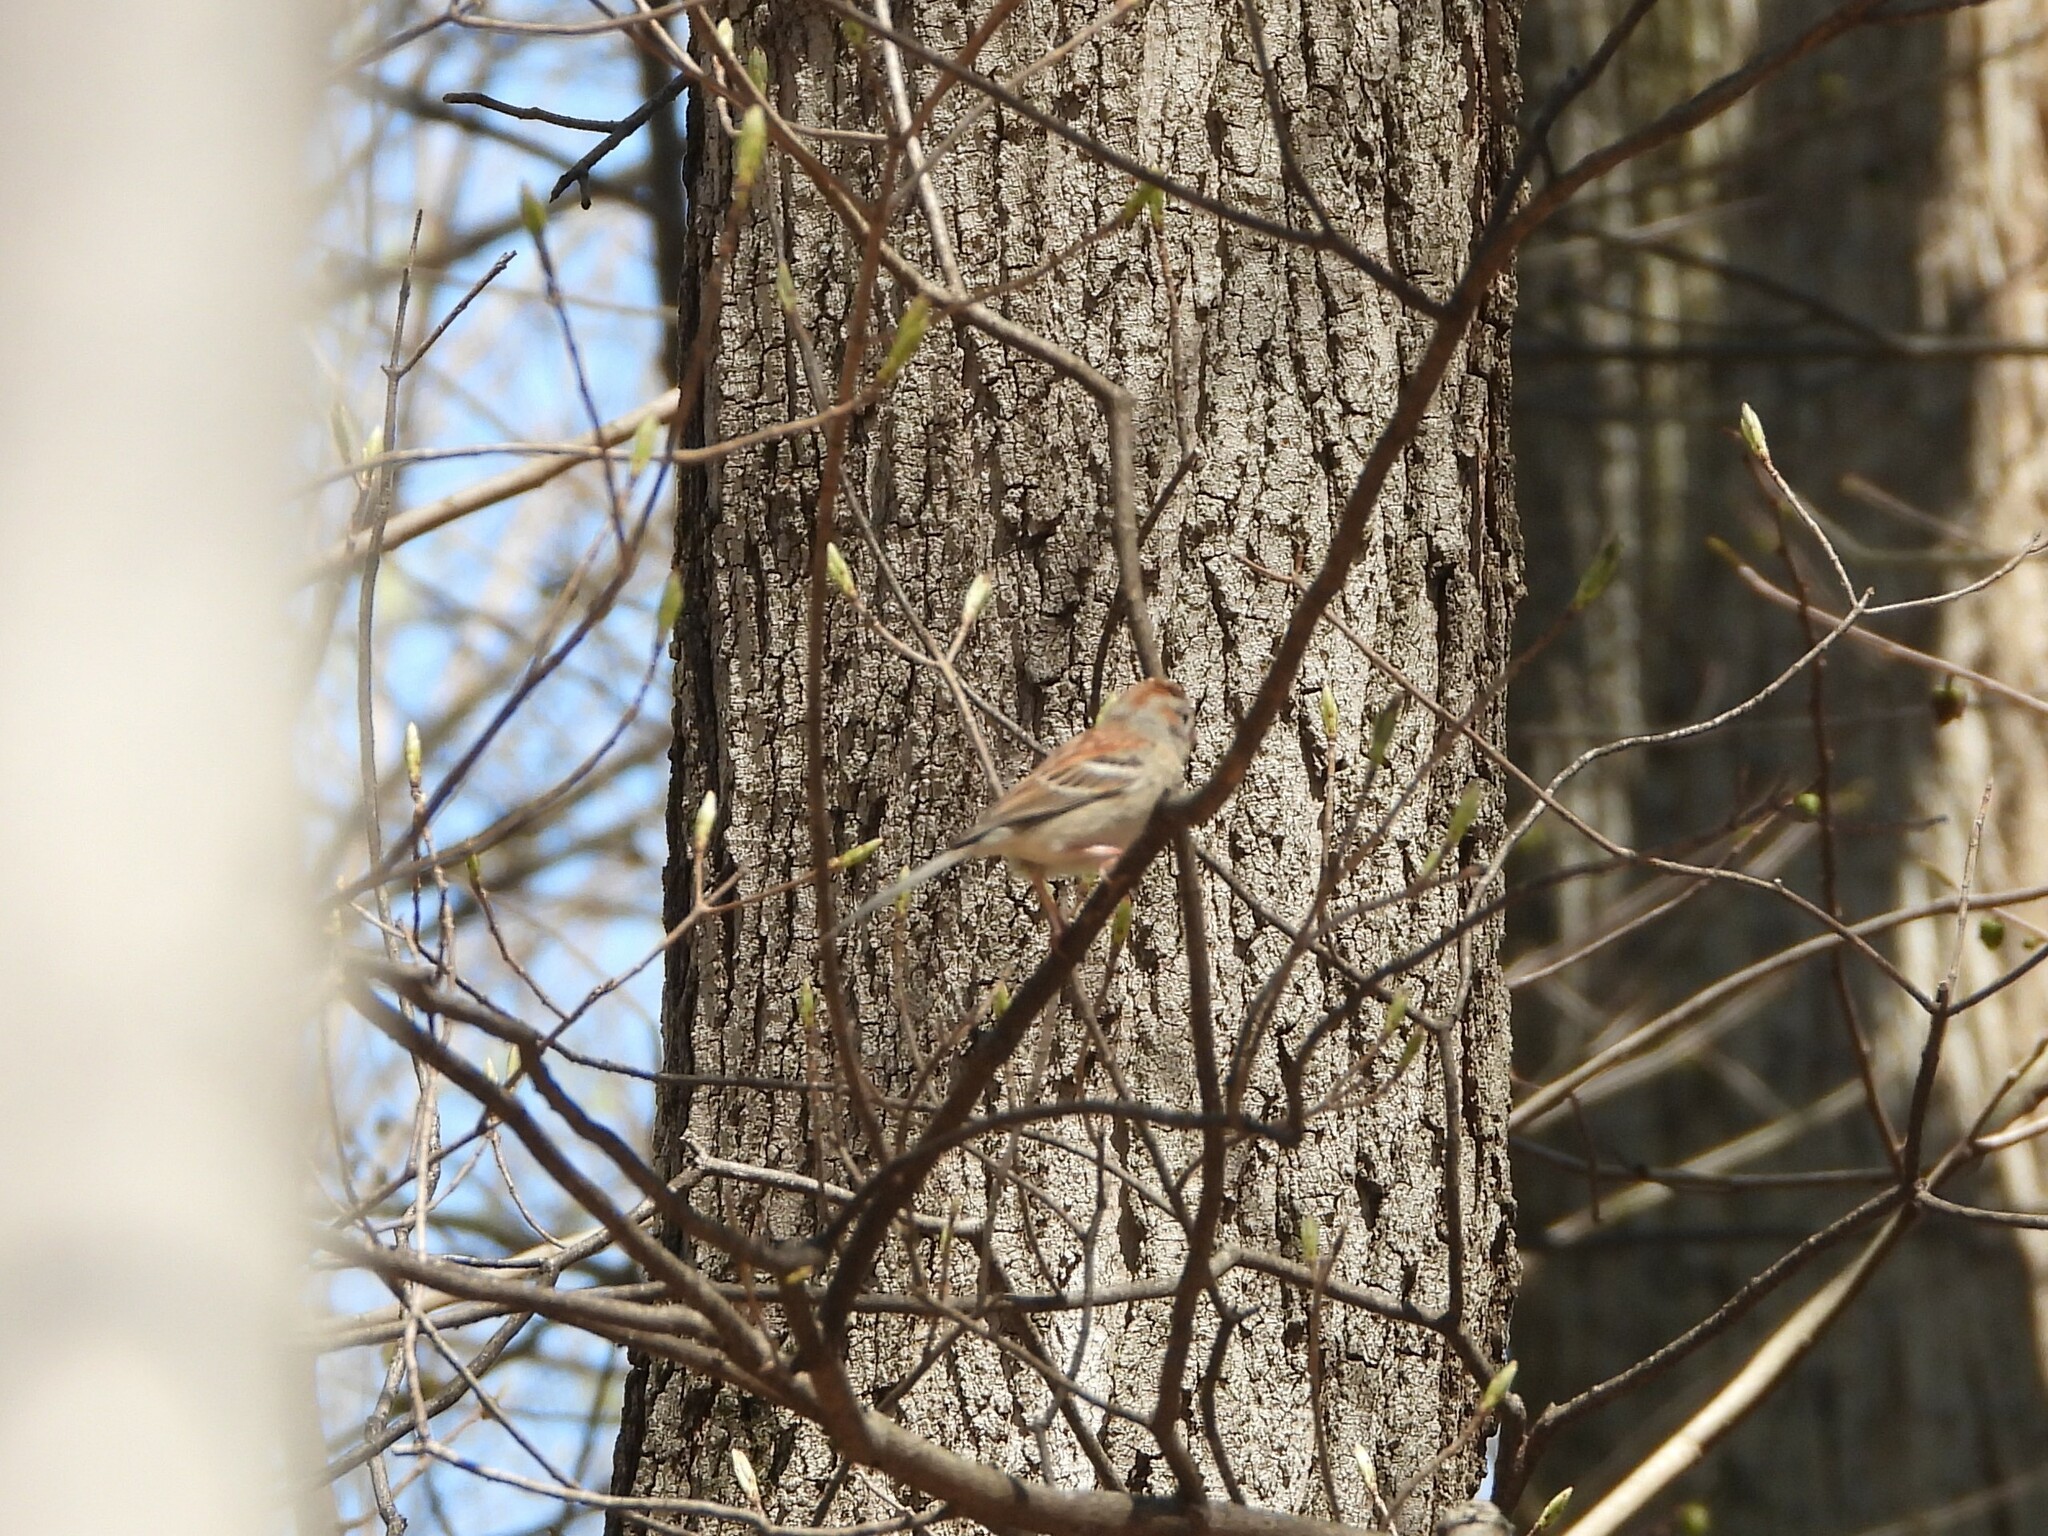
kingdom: Animalia
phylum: Chordata
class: Aves
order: Passeriformes
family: Passerellidae
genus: Spizelloides
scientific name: Spizelloides arborea
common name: American tree sparrow
